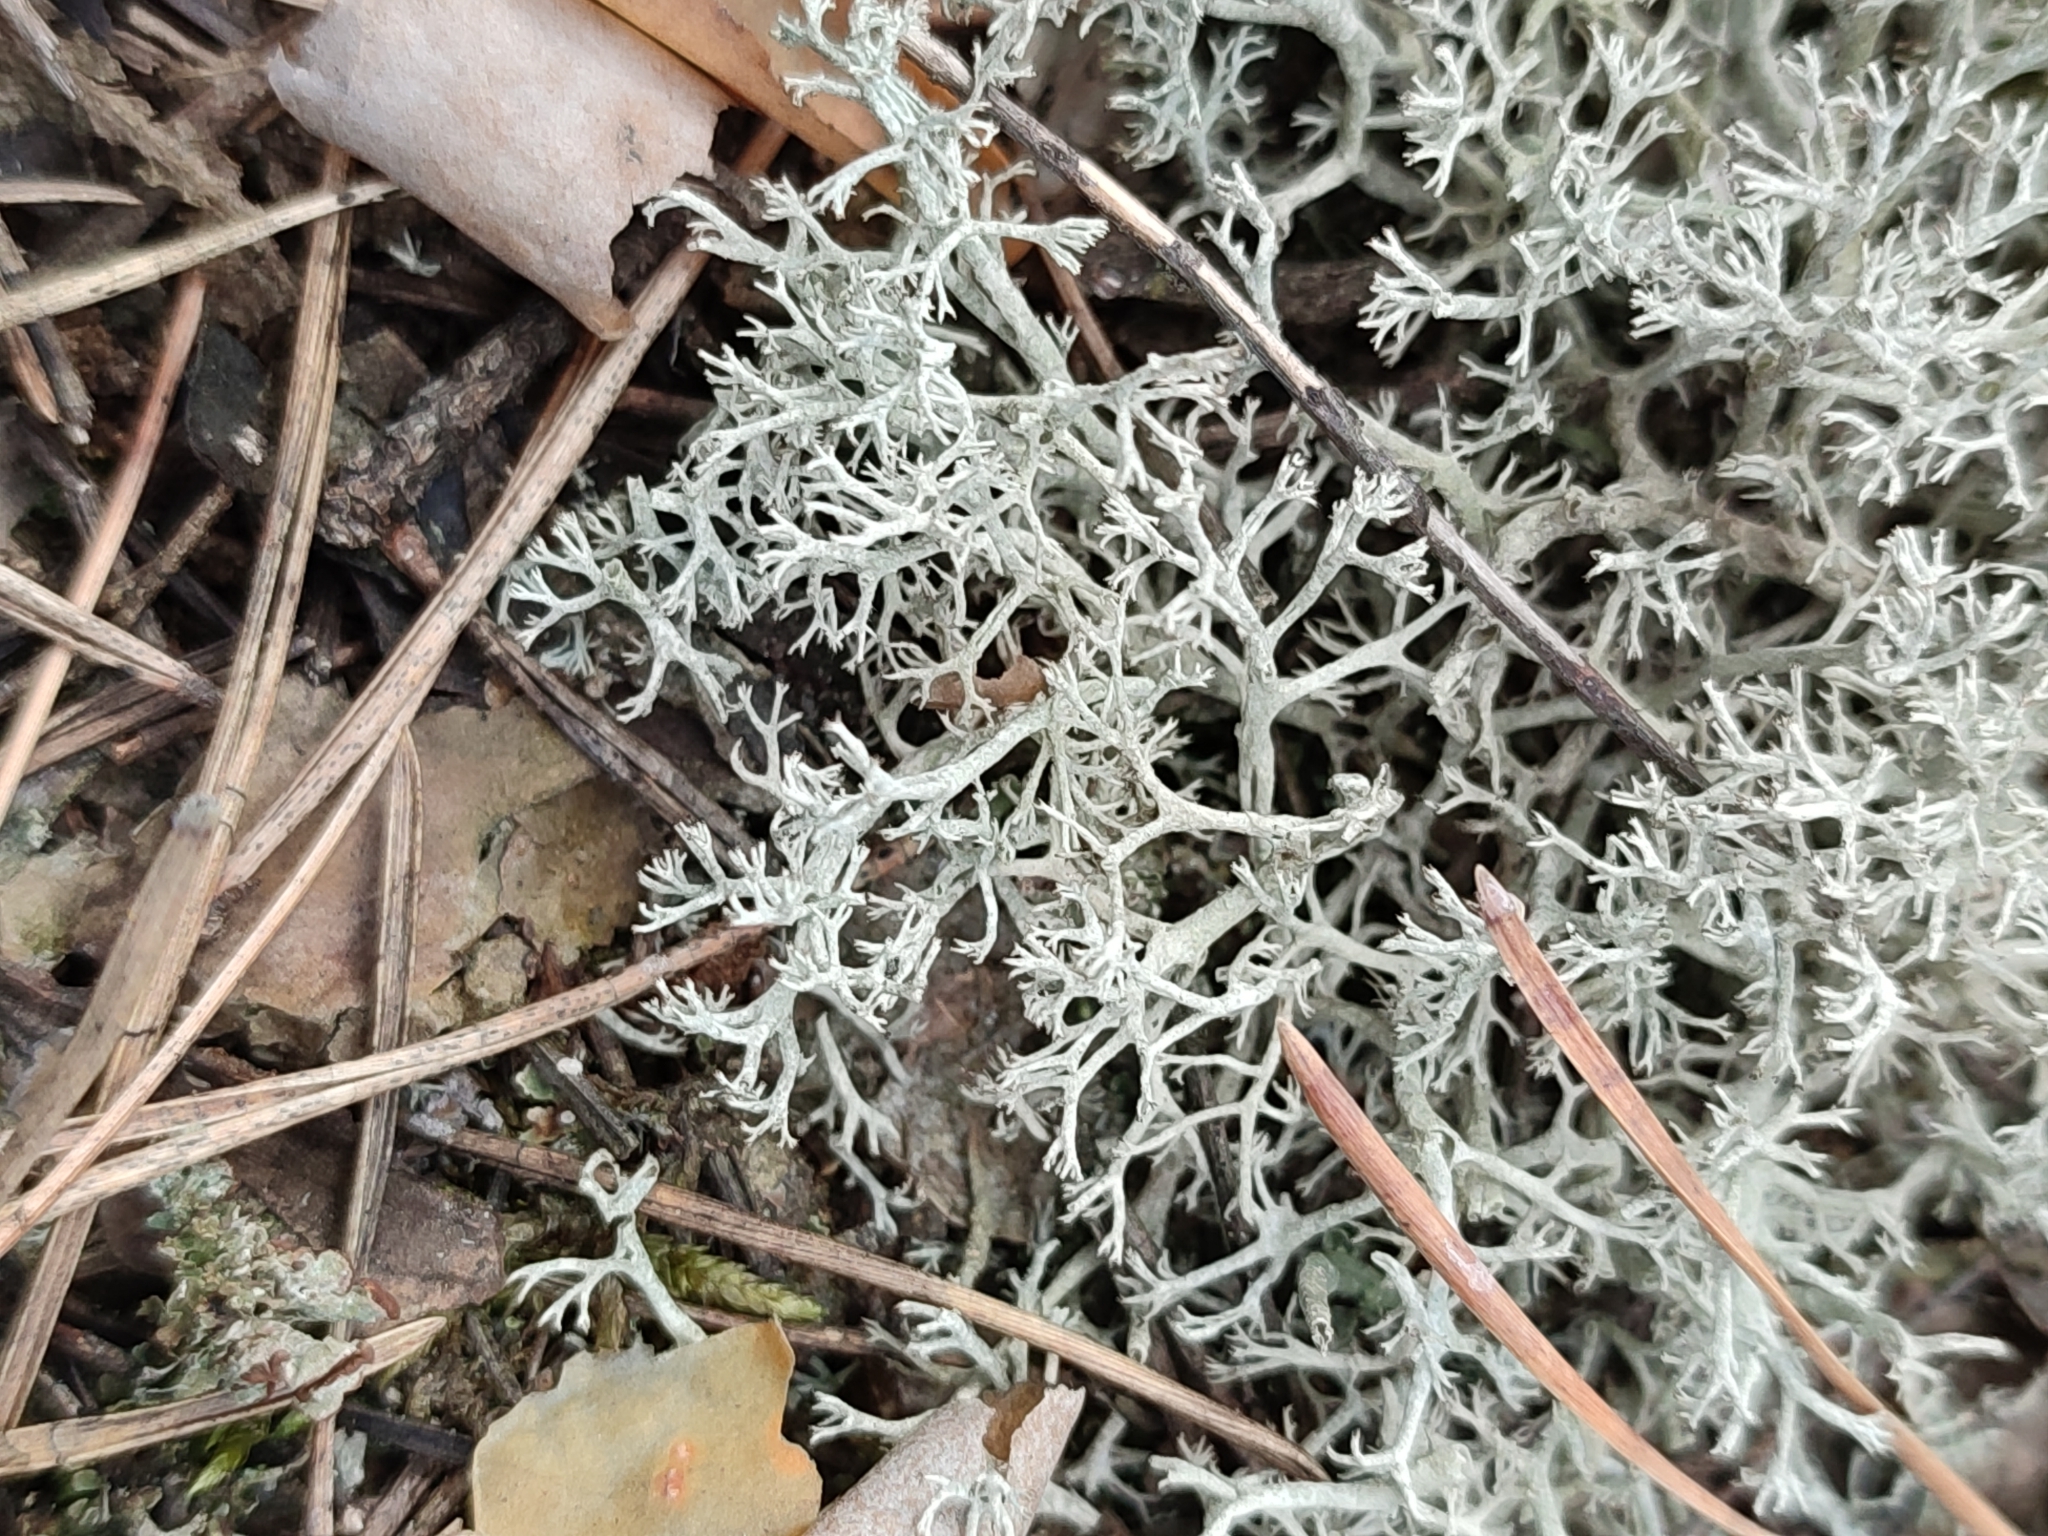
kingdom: Fungi
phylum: Ascomycota
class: Lecanoromycetes
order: Lecanorales
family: Cladoniaceae
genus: Cladonia
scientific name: Cladonia arbuscula
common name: Reindeer lichen
